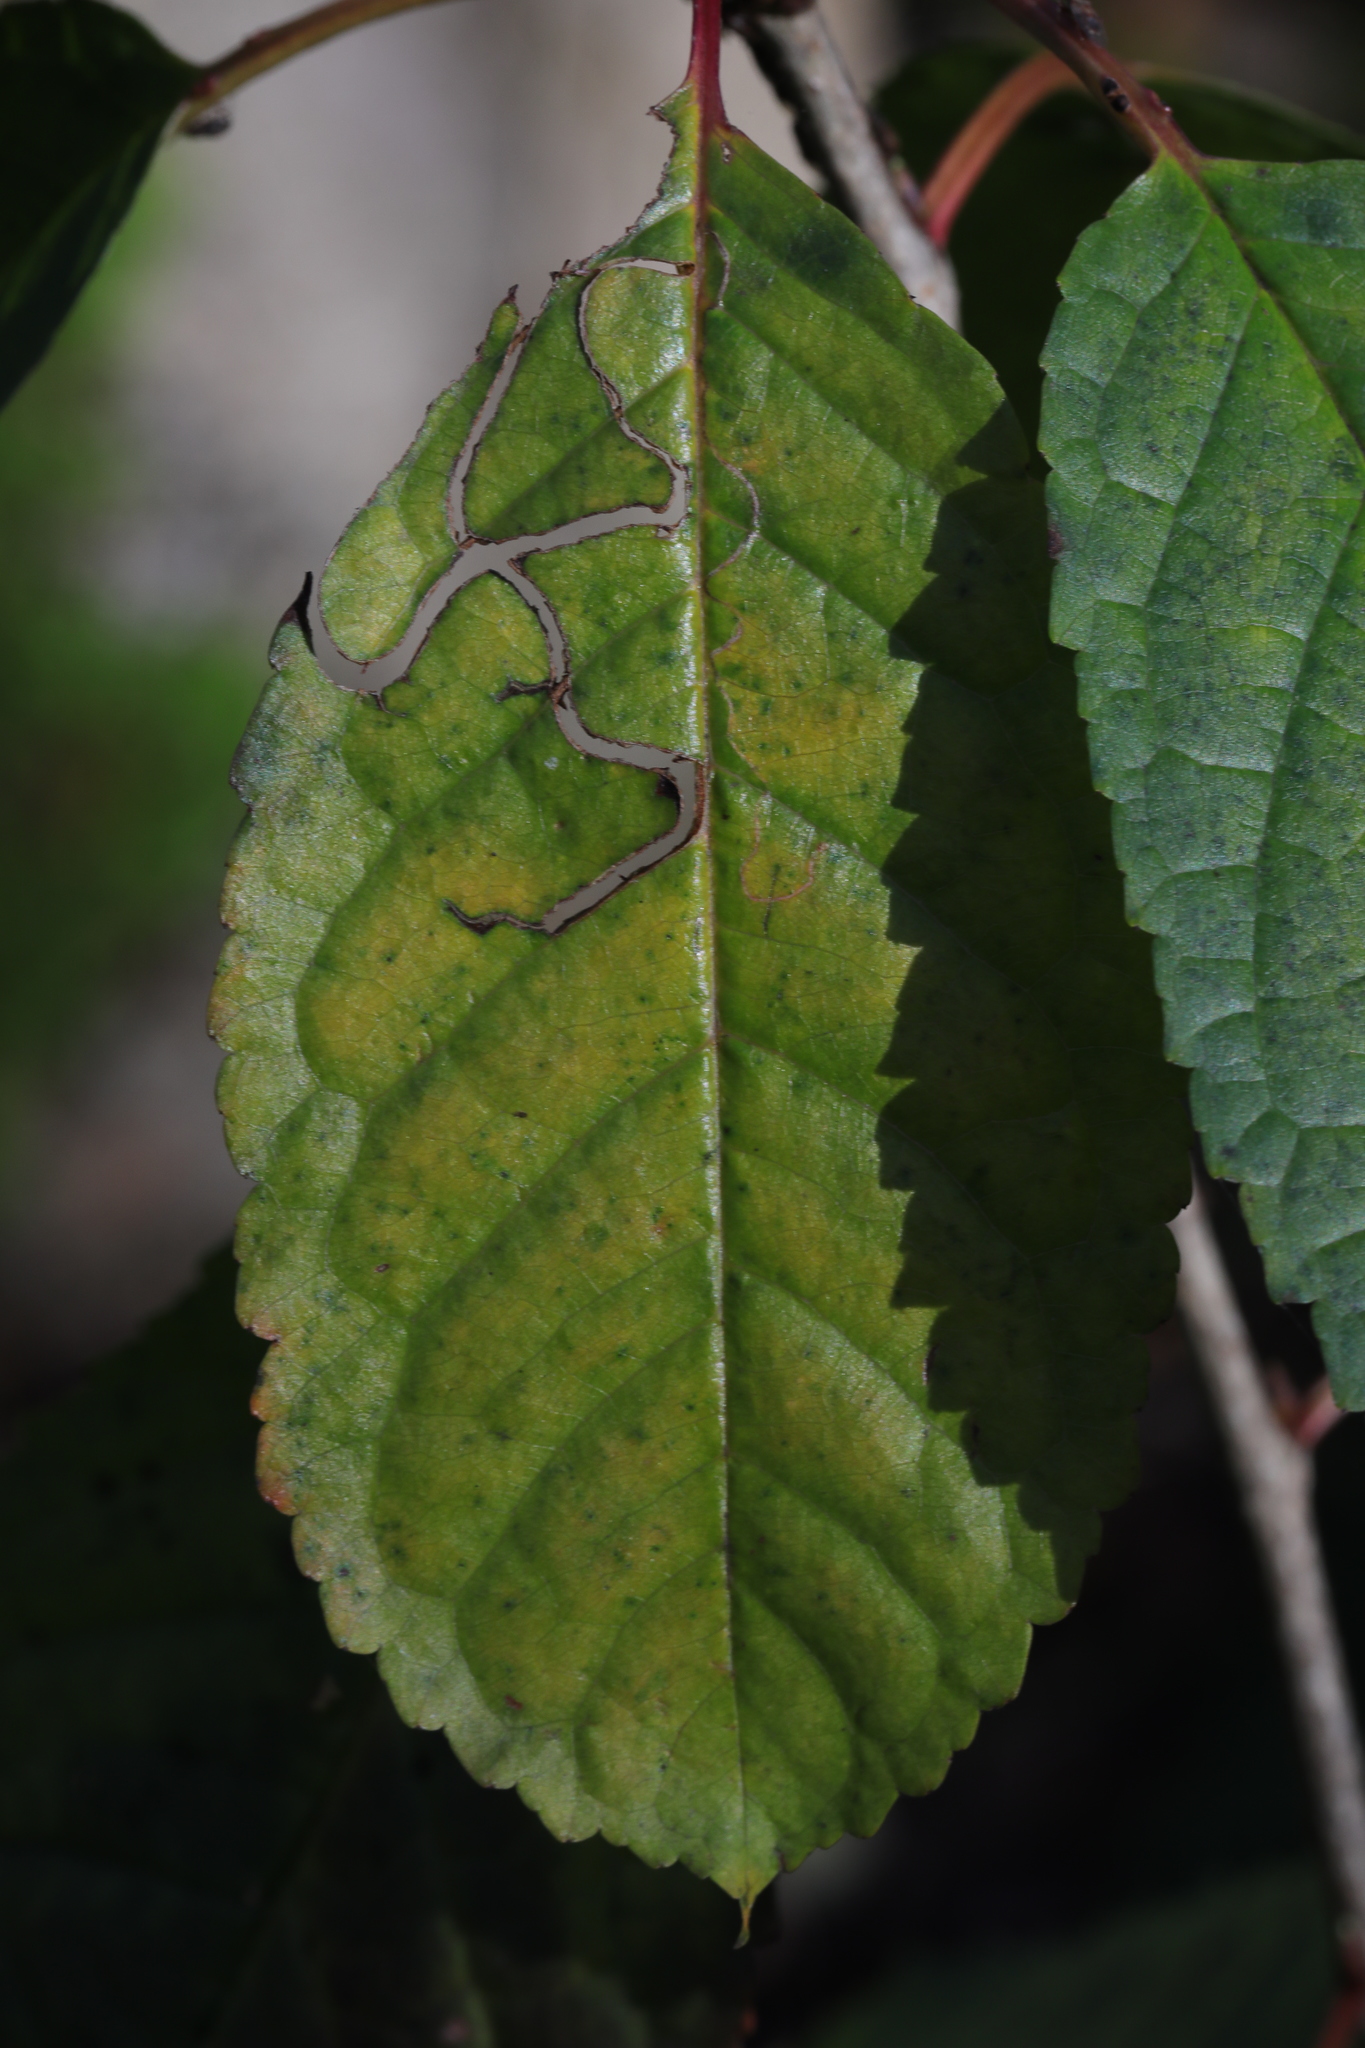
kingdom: Animalia
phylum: Arthropoda
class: Insecta
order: Lepidoptera
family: Lyonetiidae
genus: Lyonetia
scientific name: Lyonetia clerkella
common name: Apple leaf miner
